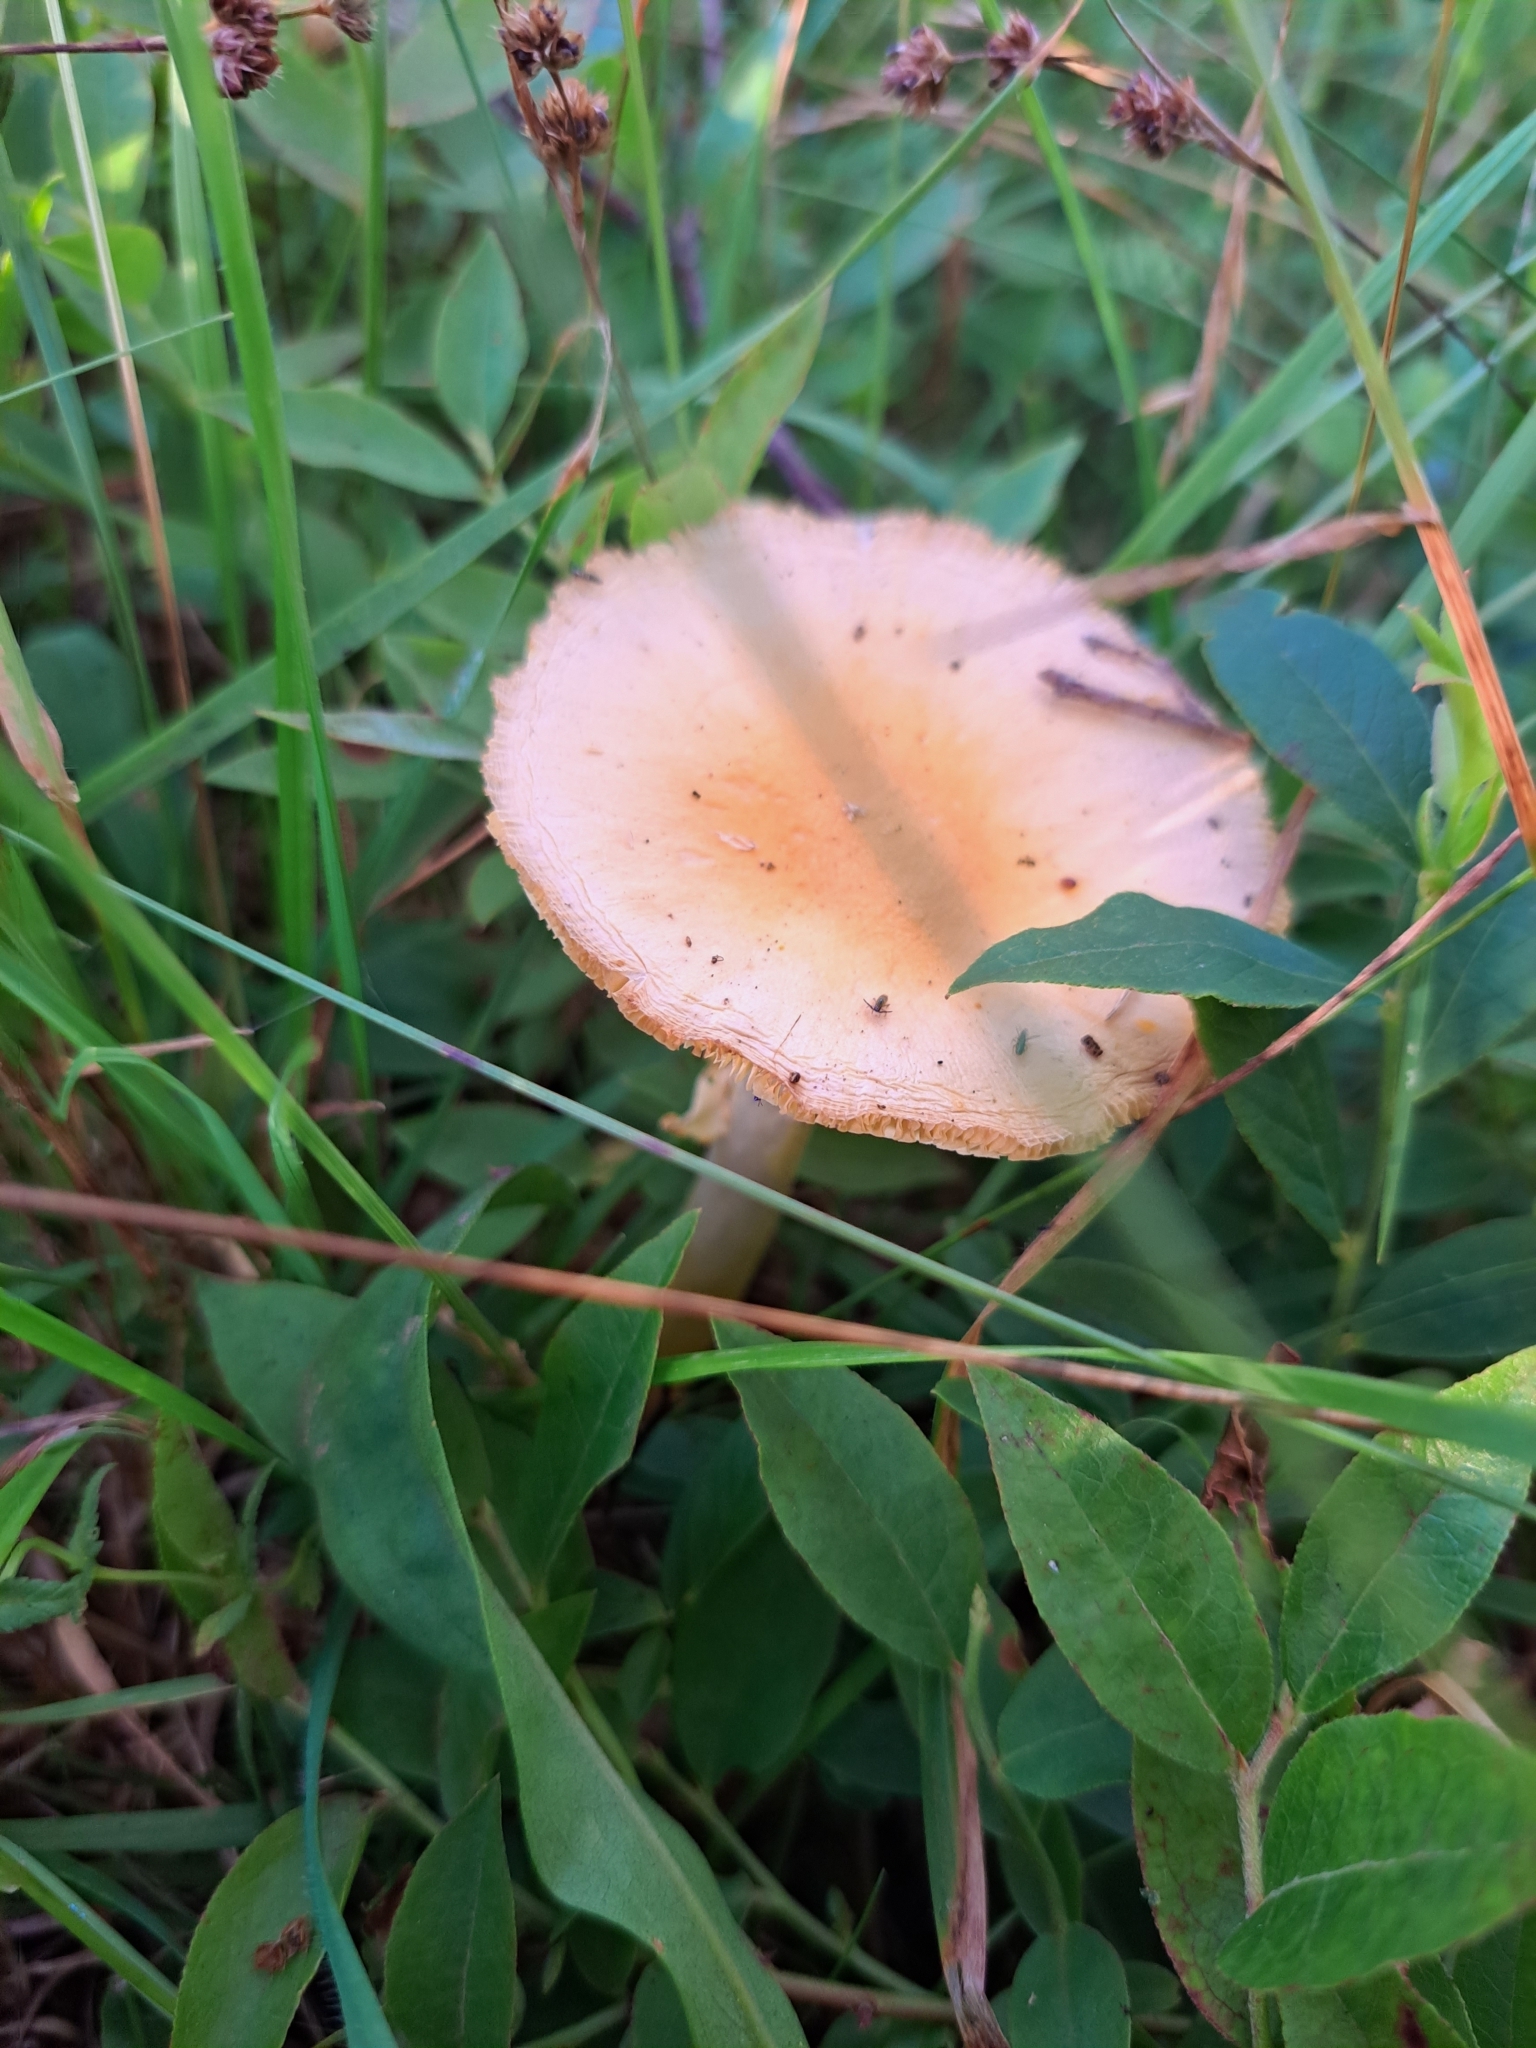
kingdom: Fungi
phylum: Basidiomycota
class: Agaricomycetes
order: Agaricales
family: Amanitaceae
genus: Amanita
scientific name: Amanita wellsii
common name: Salmon amanita
